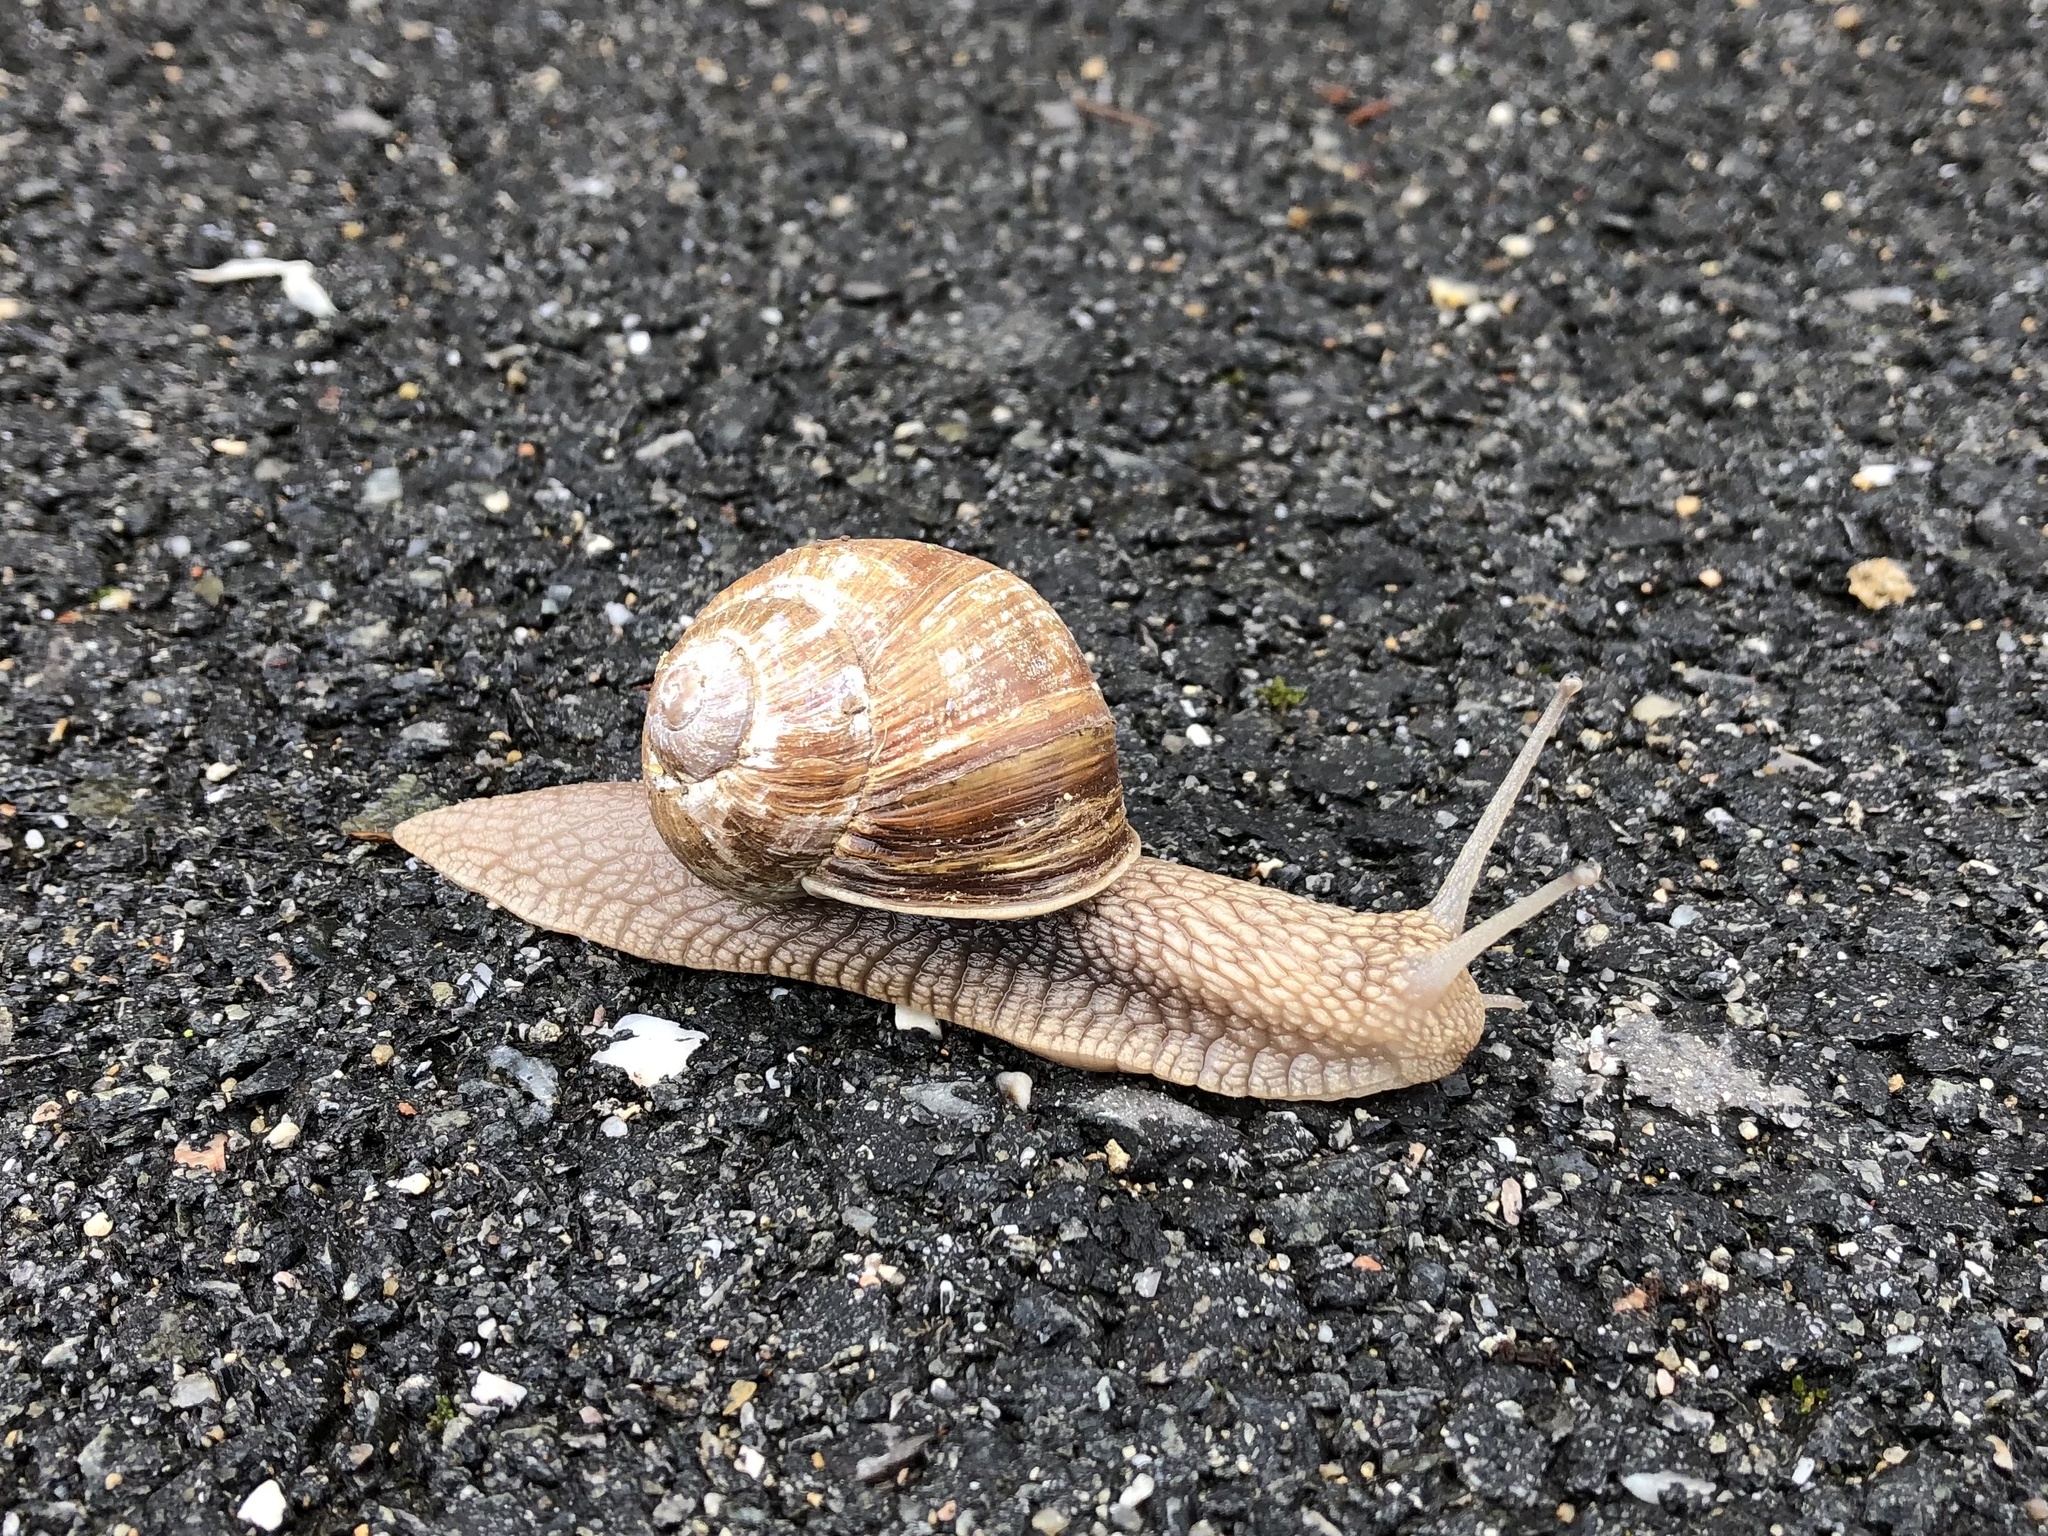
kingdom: Animalia
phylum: Mollusca
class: Gastropoda
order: Stylommatophora
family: Helicidae
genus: Helix
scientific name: Helix pomatia
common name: Roman snail
